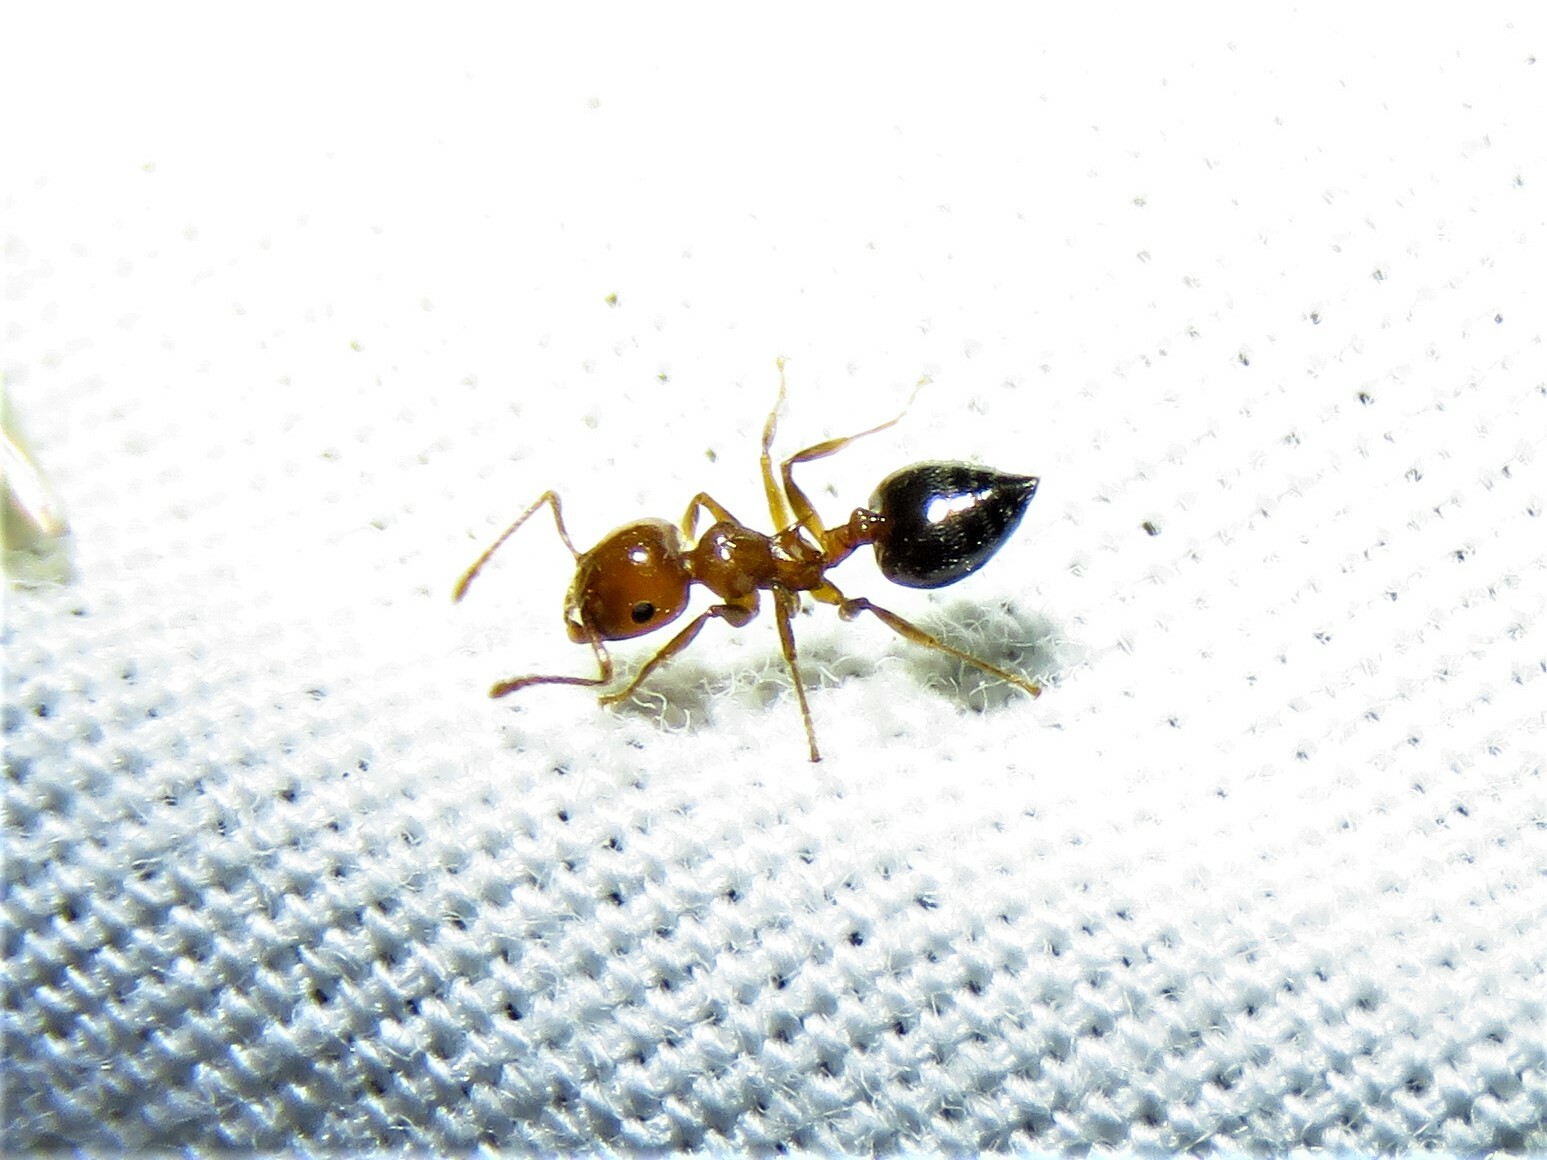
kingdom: Animalia
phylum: Arthropoda
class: Insecta
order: Hymenoptera
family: Formicidae
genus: Crematogaster
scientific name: Crematogaster laeviuscula
